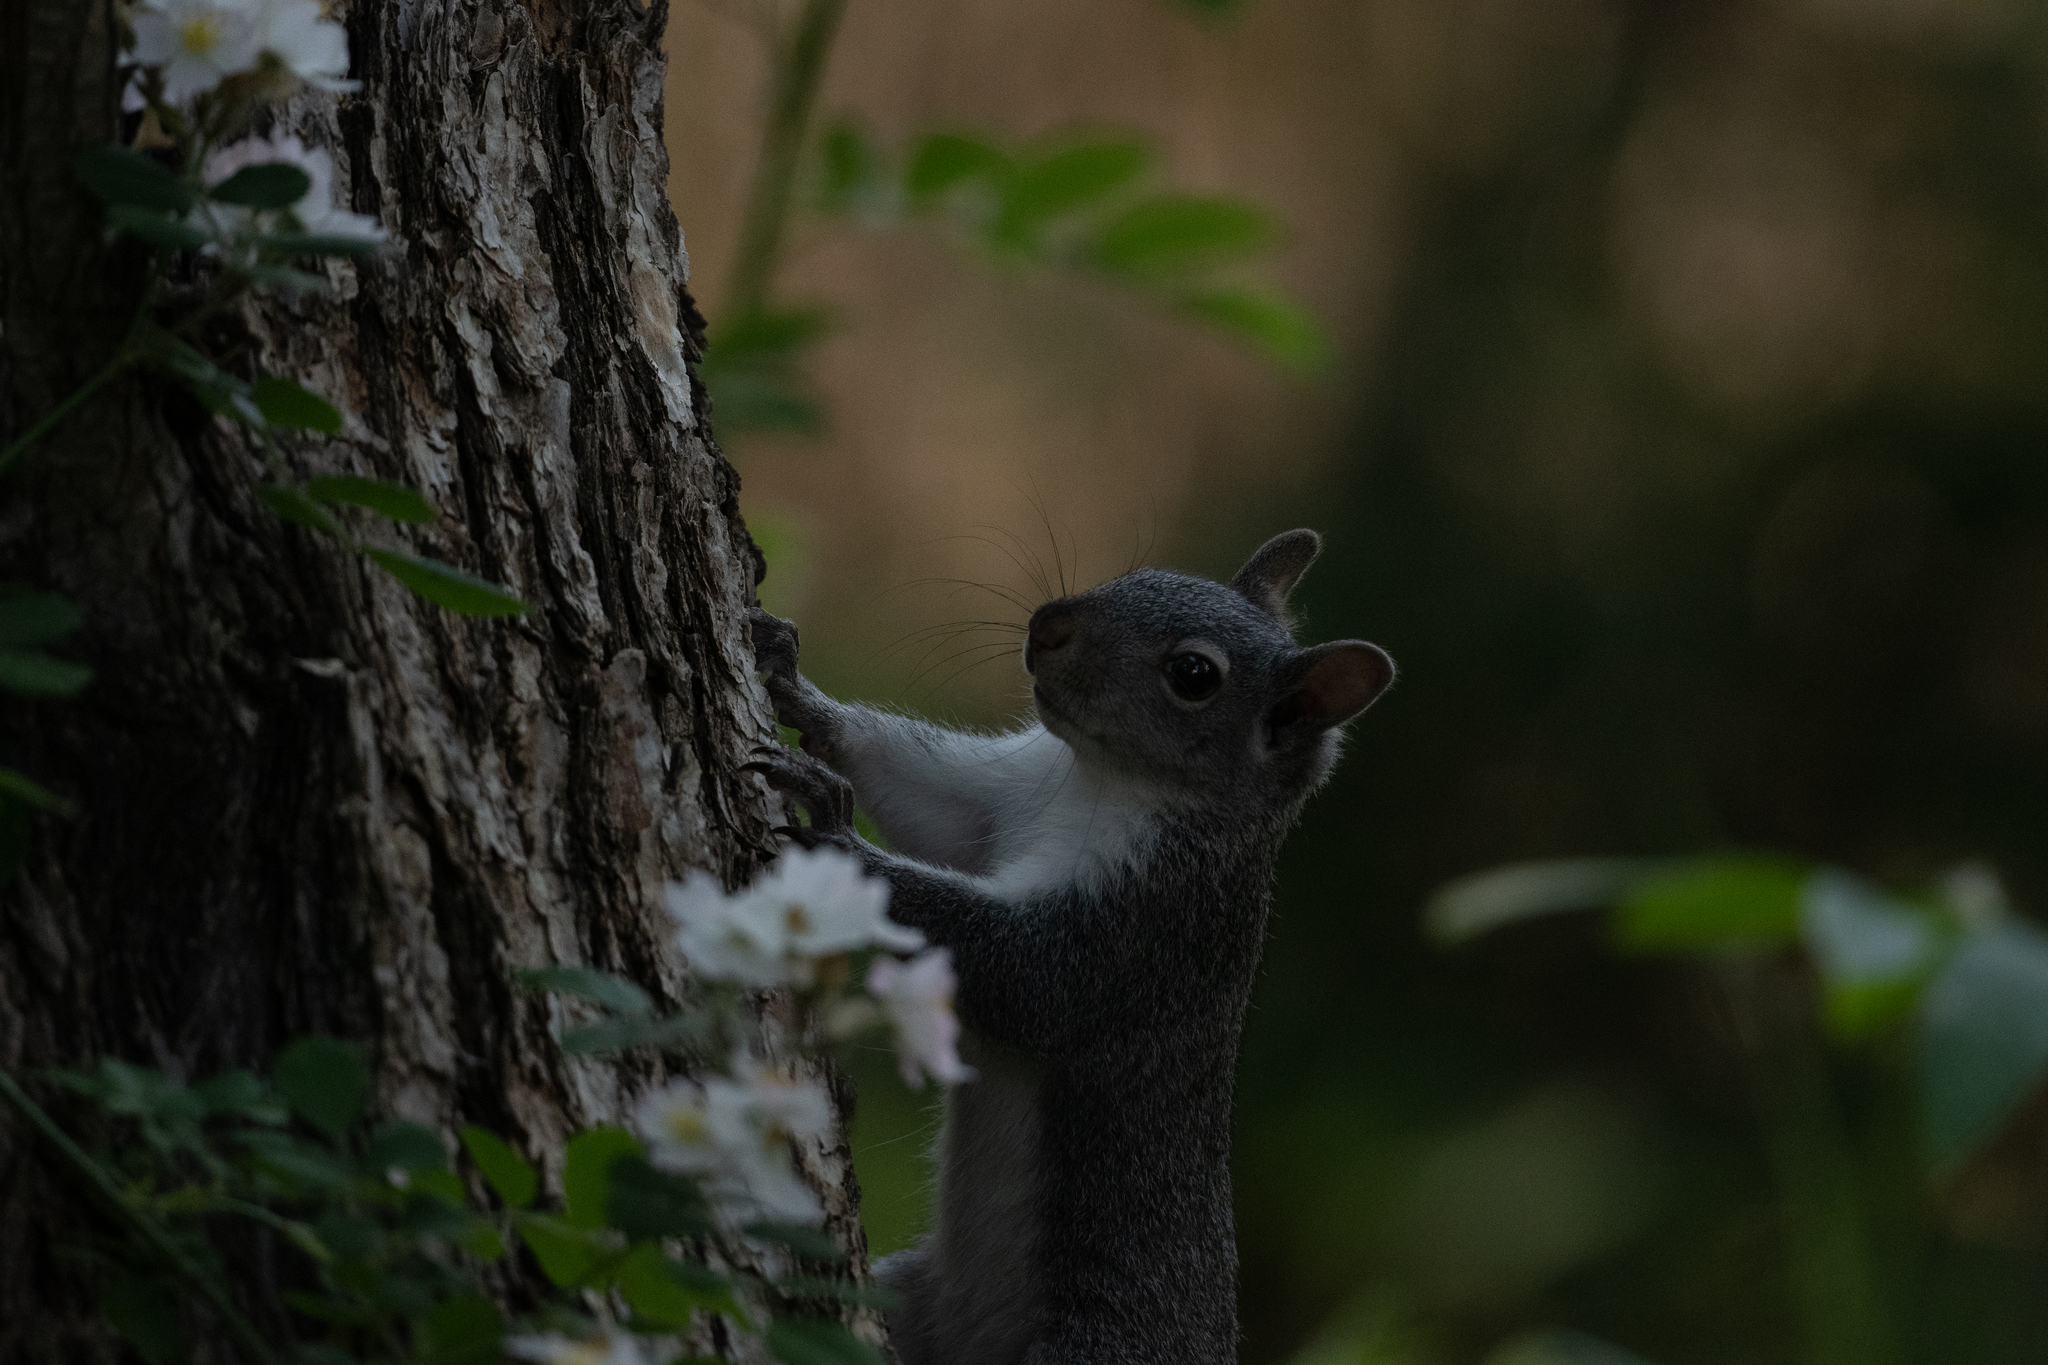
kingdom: Animalia
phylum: Chordata
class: Mammalia
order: Rodentia
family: Sciuridae
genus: Sciurus
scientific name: Sciurus griseus
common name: Western gray squirrel
